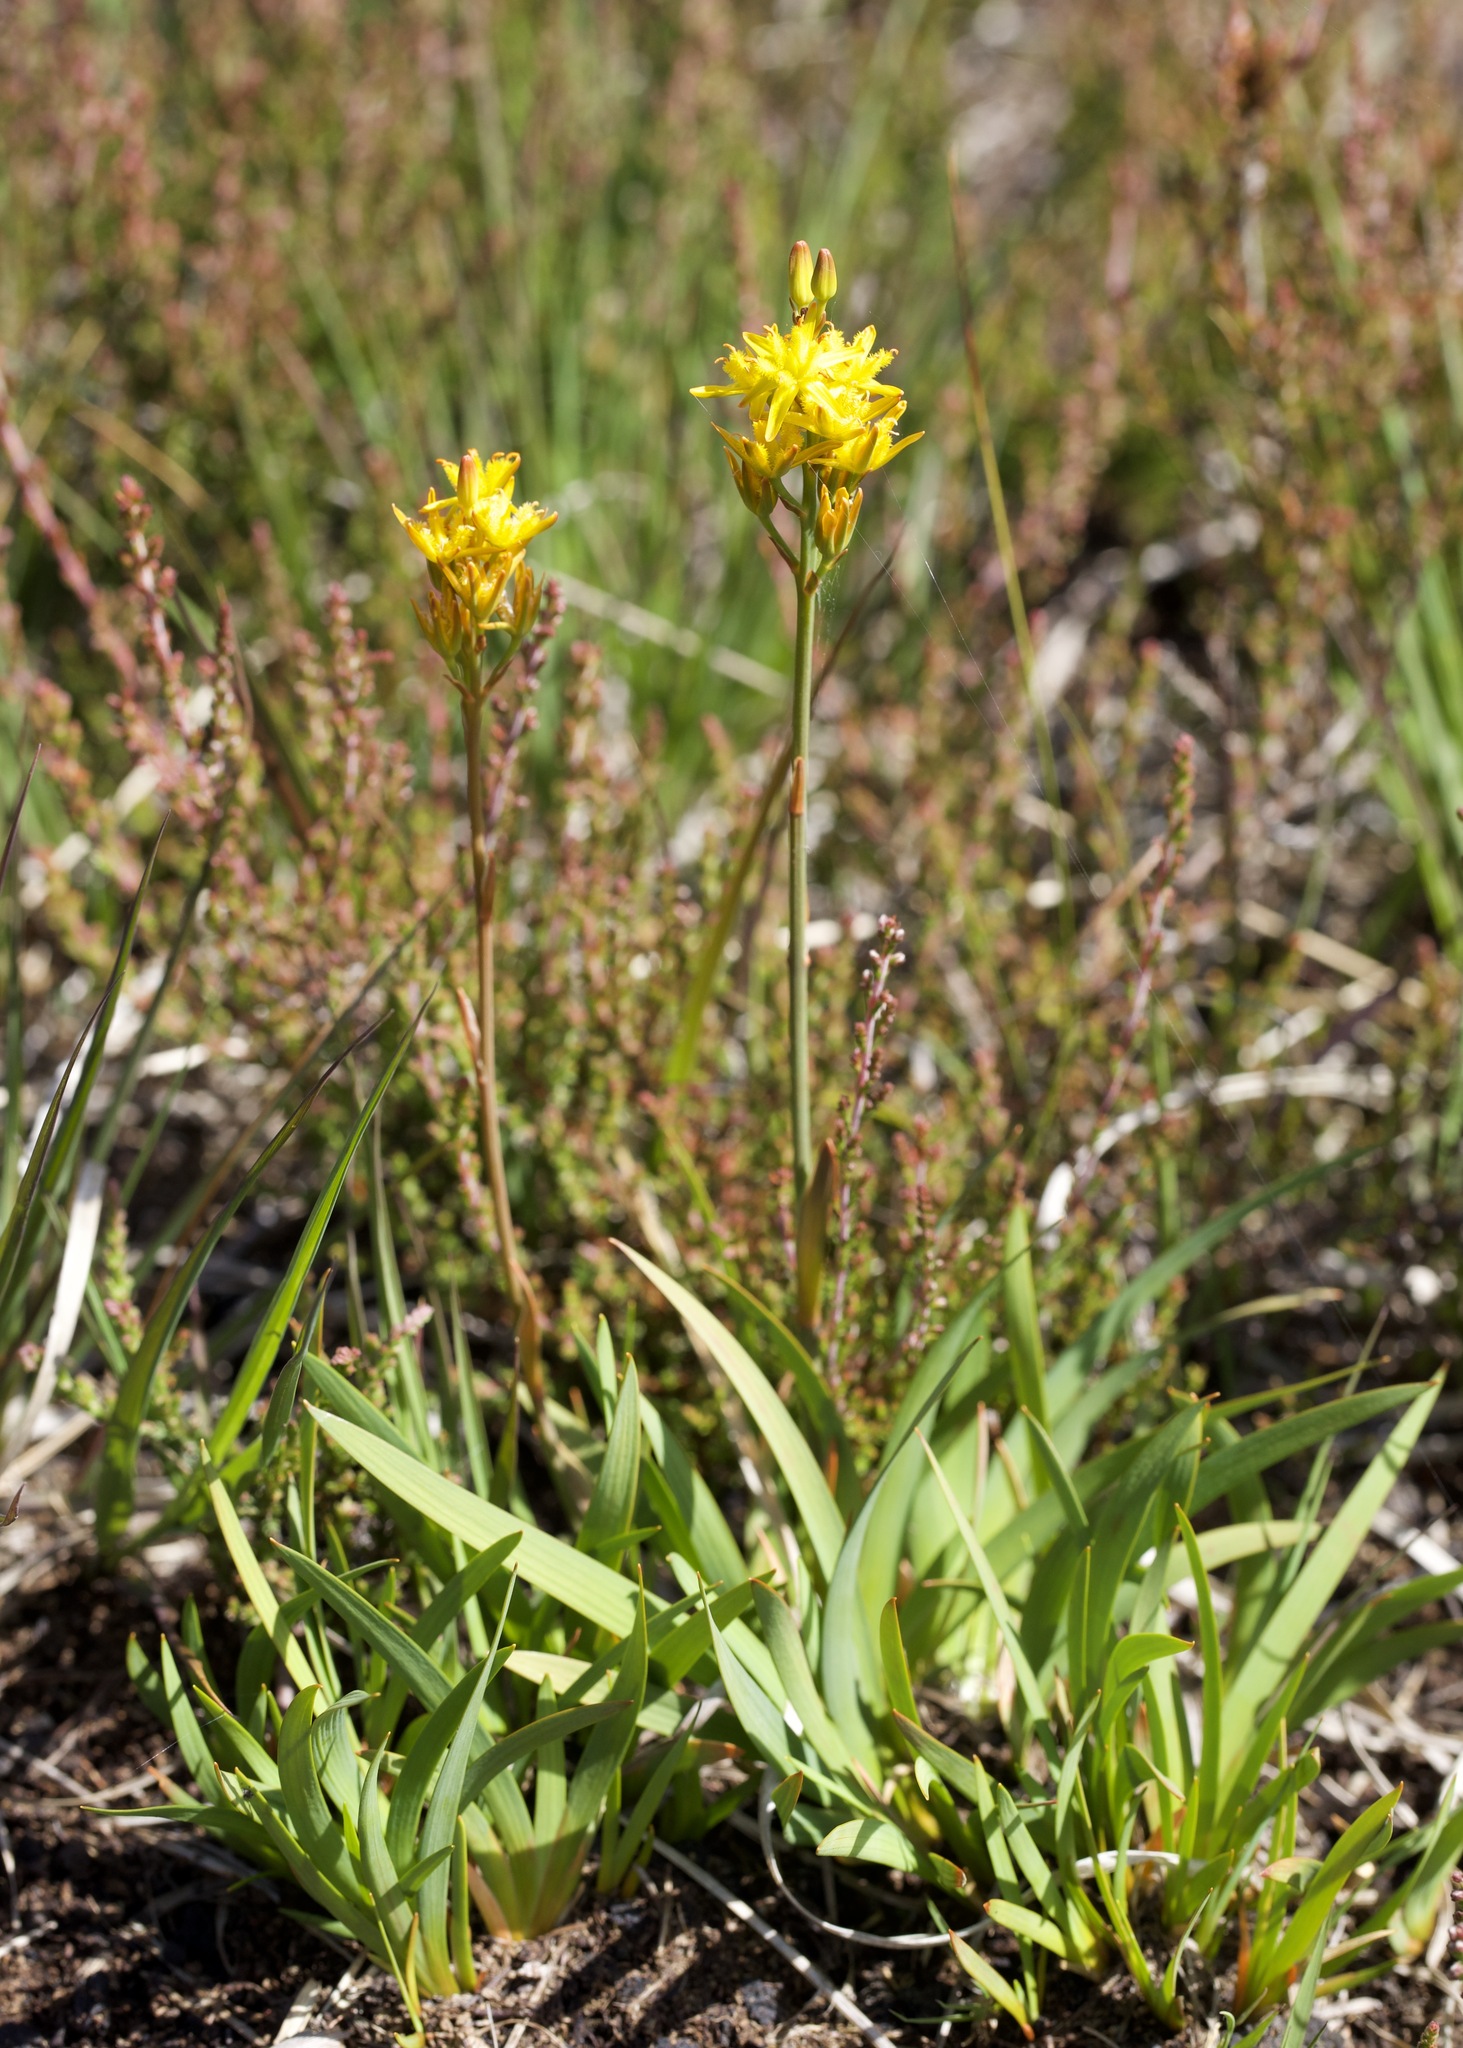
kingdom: Plantae
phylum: Tracheophyta
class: Liliopsida
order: Dioscoreales
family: Nartheciaceae
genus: Narthecium
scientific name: Narthecium ossifragum
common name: Bog asphodel
